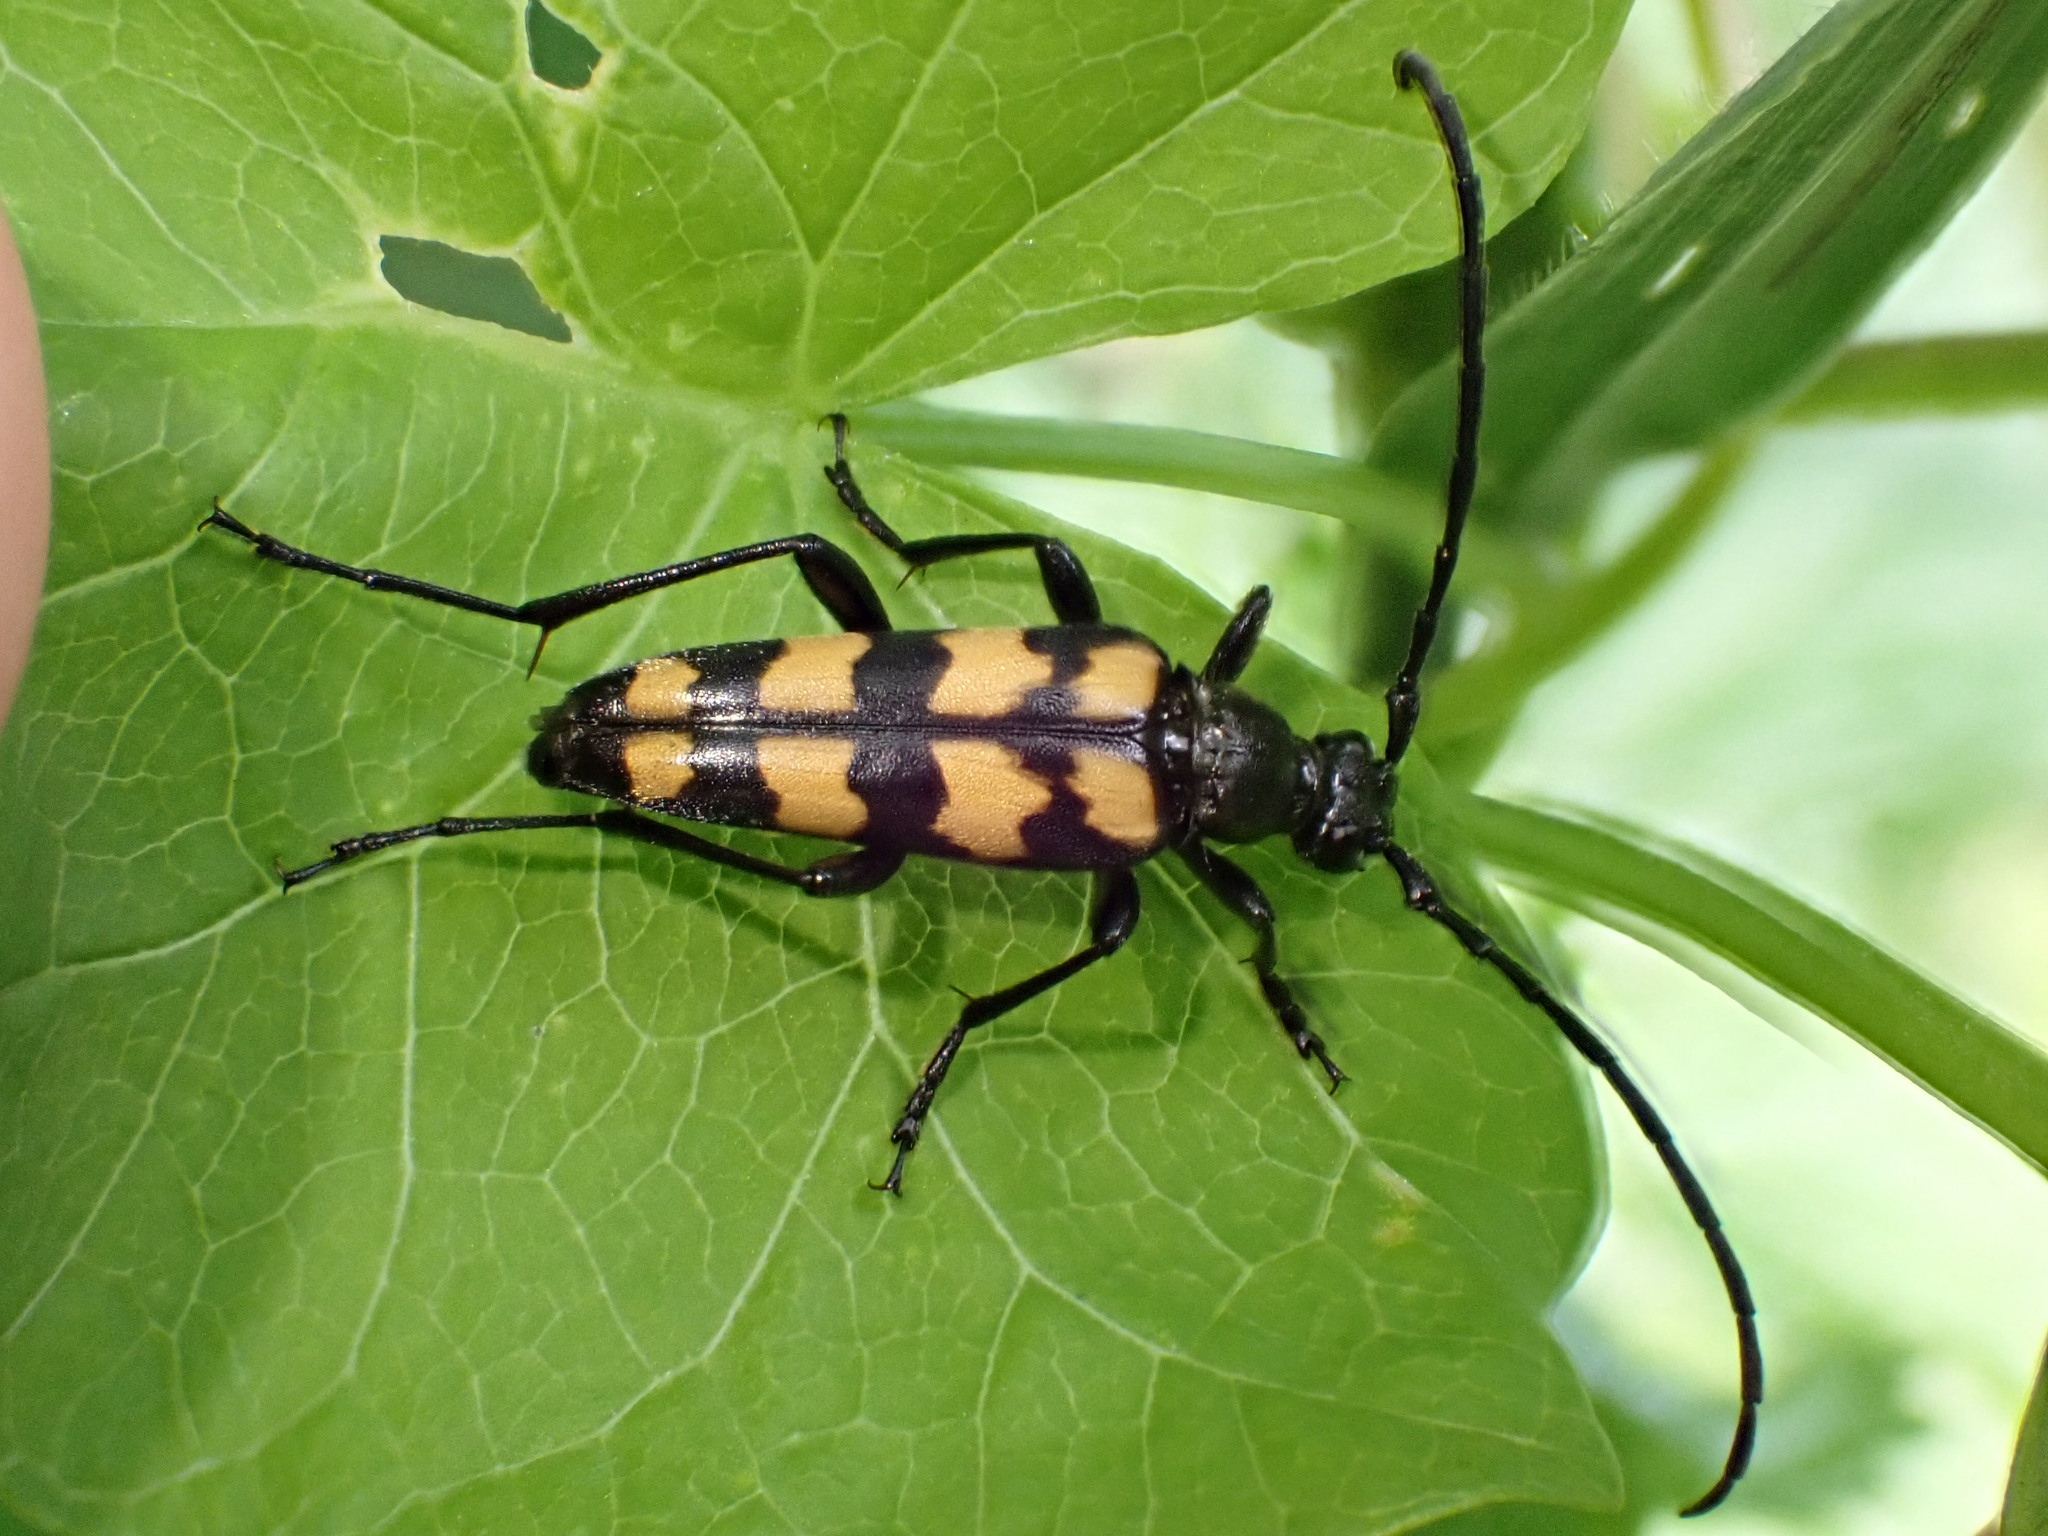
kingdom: Animalia
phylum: Arthropoda
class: Insecta
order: Coleoptera
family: Cerambycidae
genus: Leptura
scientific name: Leptura quadrifasciata
